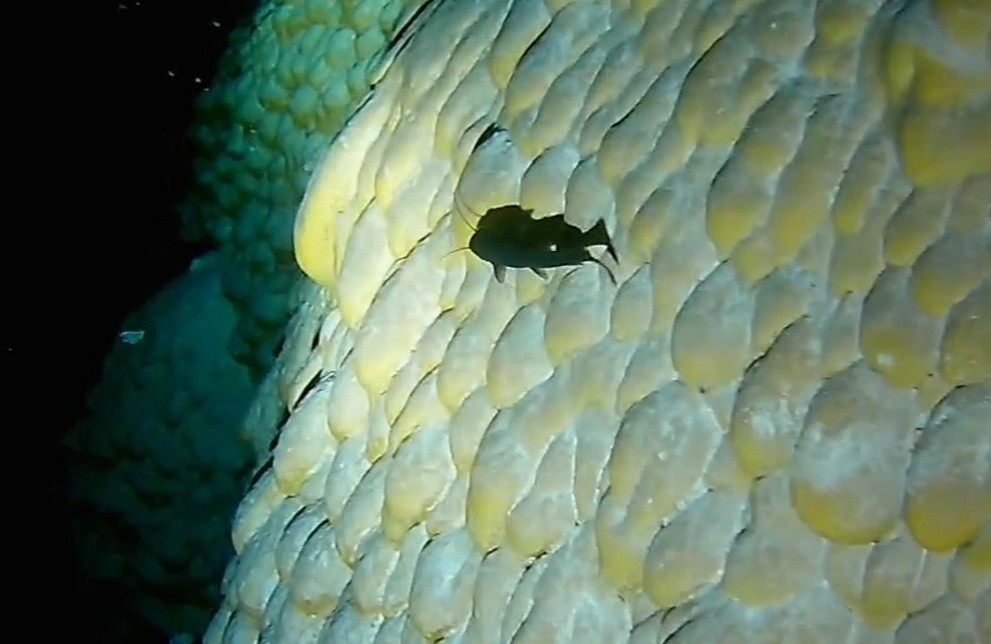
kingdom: Animalia
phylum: Chordata
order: Siluriformes
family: Heptapteridae
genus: Rhamdia
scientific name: Rhamdia guatemalensis
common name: Pale catfish
